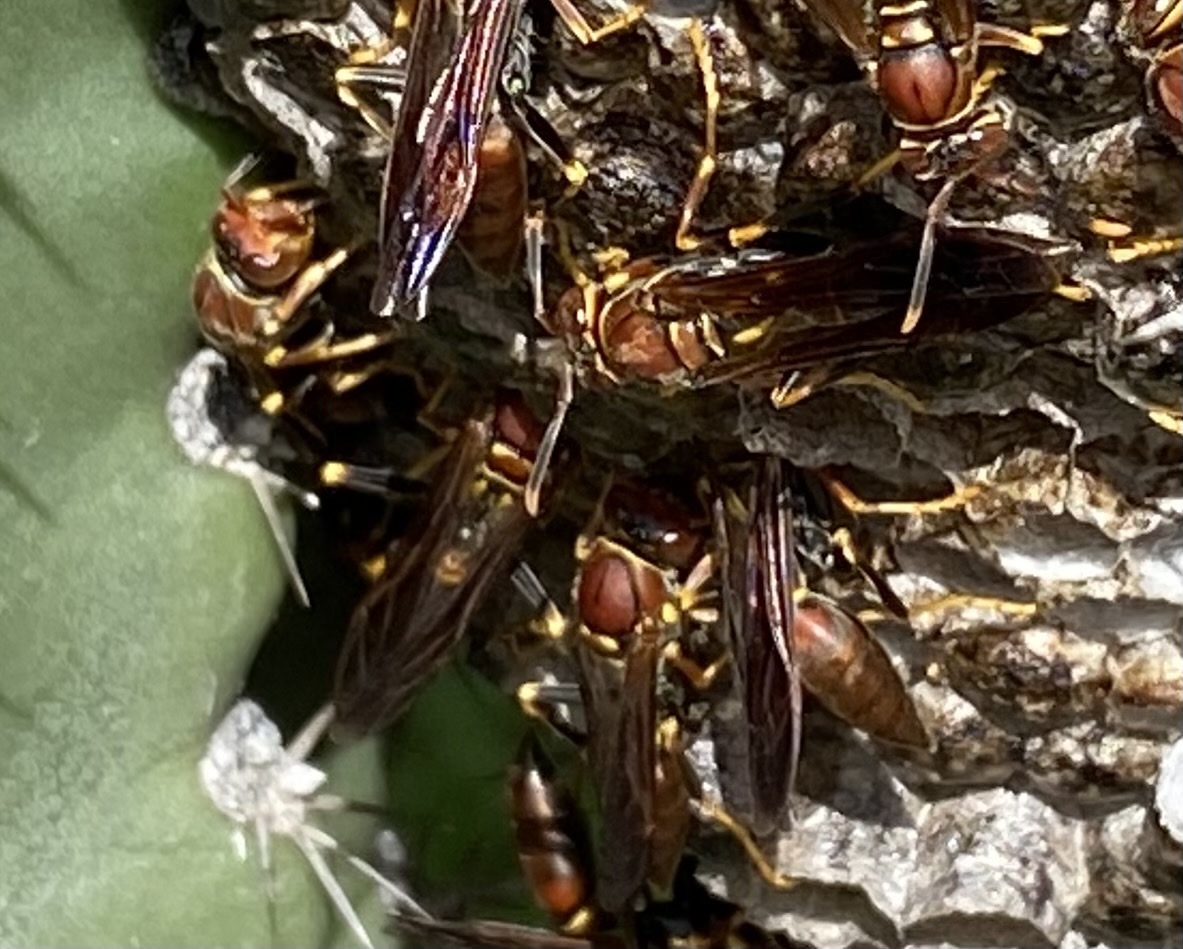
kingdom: Animalia
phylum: Arthropoda
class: Insecta
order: Hymenoptera
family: Eumenidae
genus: Polistes
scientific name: Polistes veracrucis
